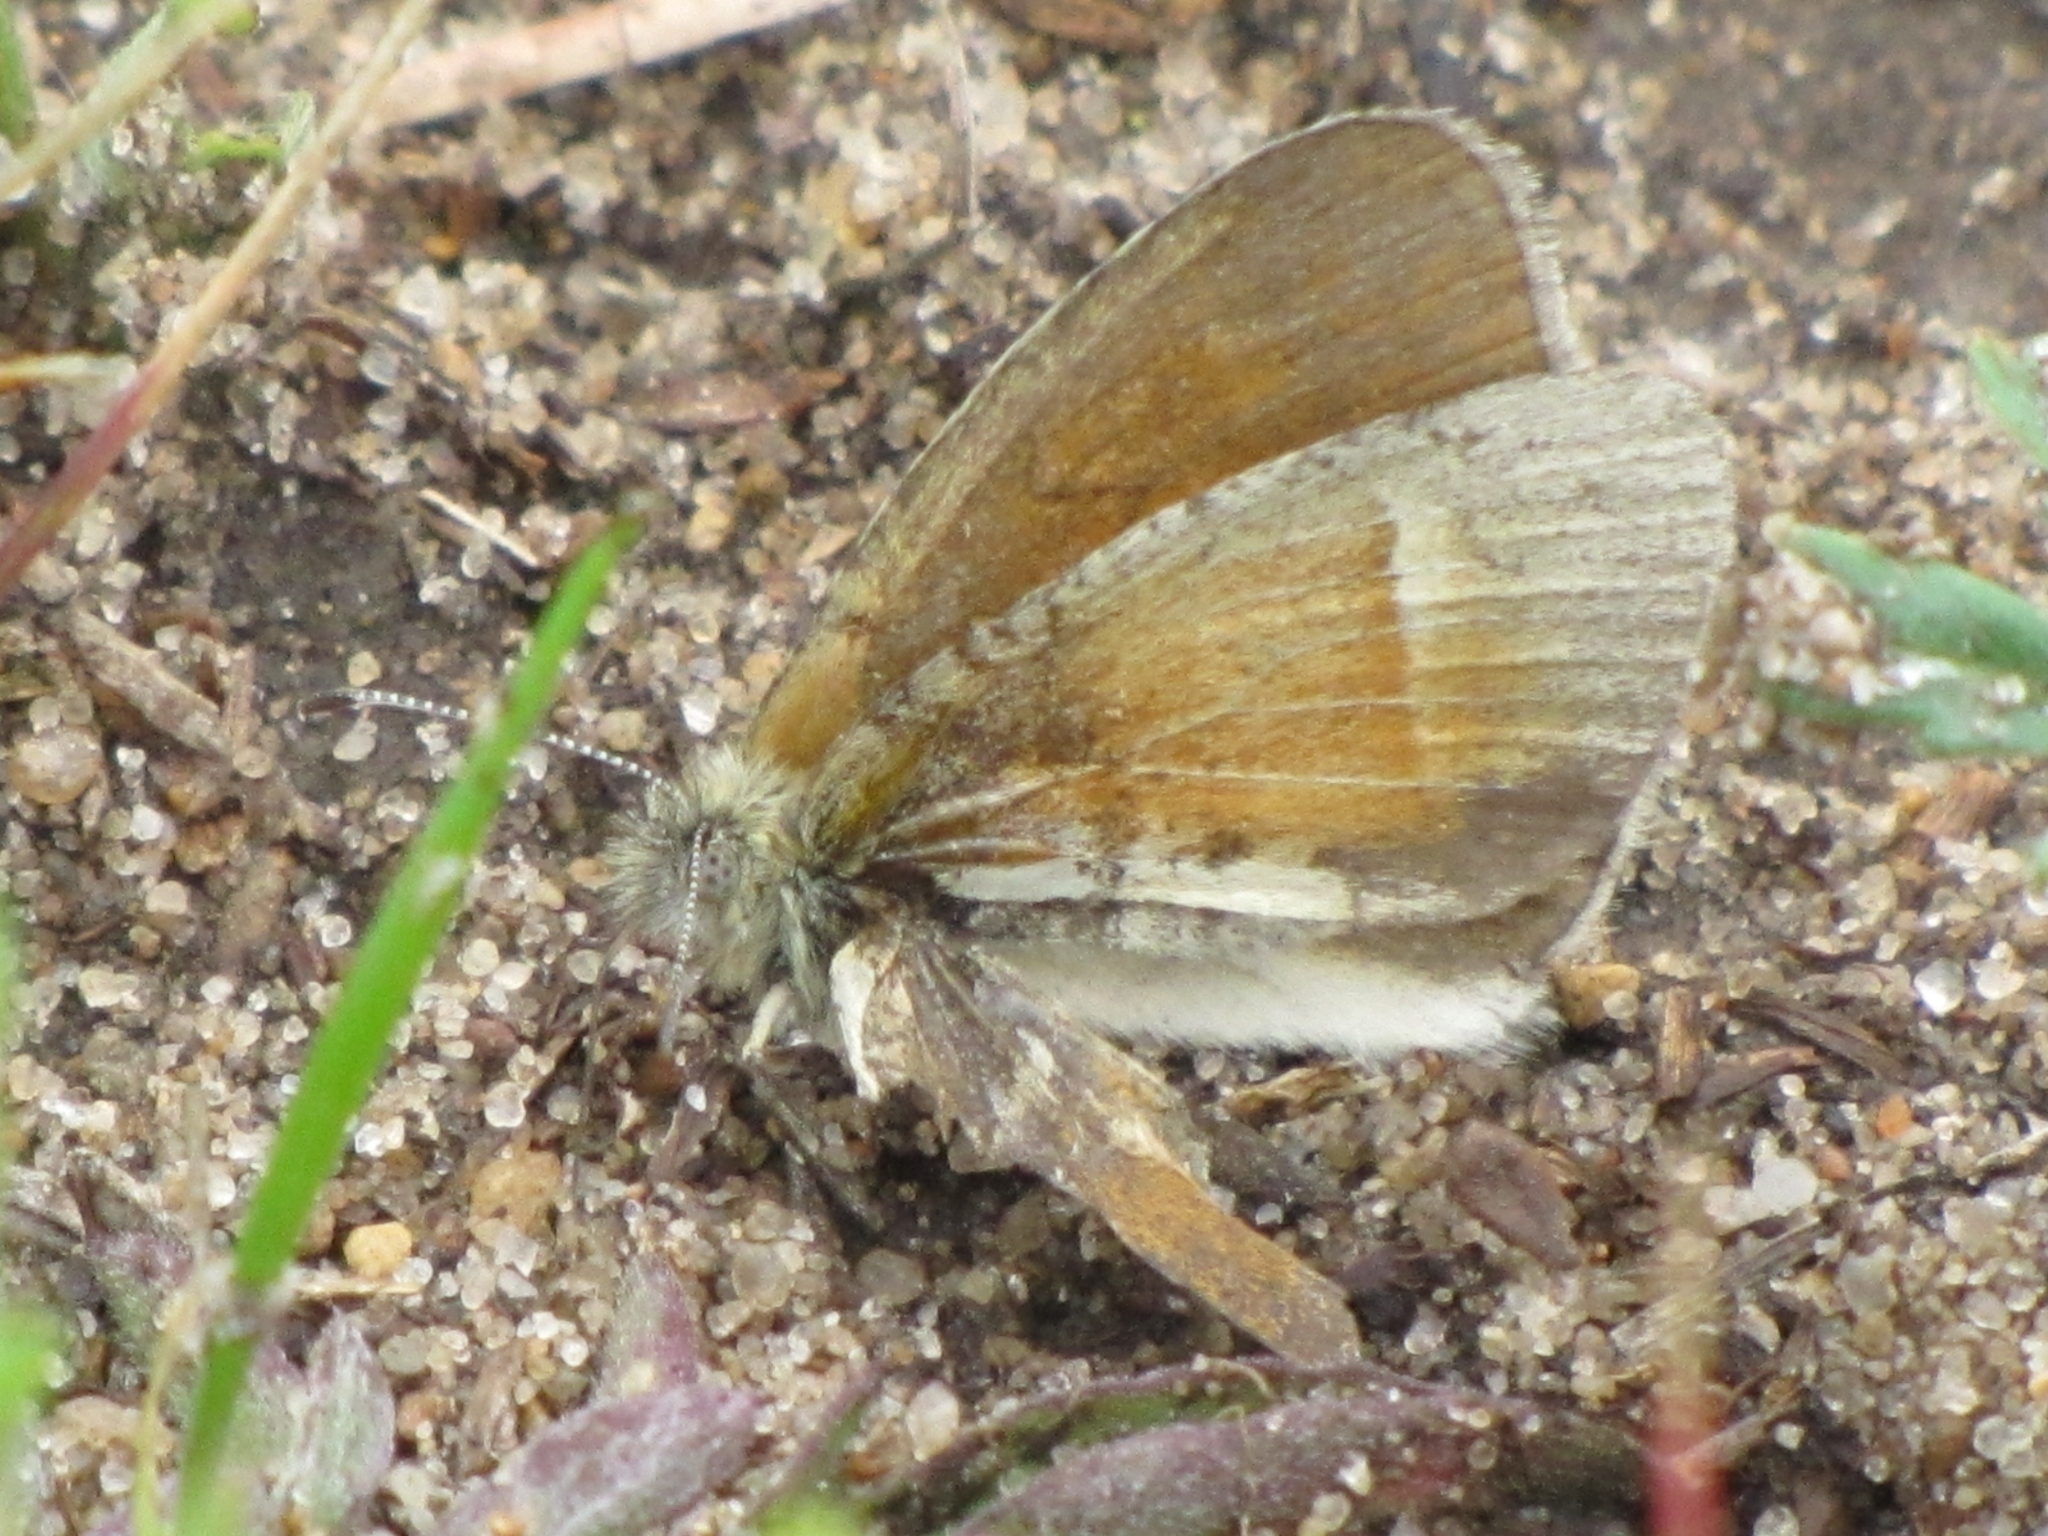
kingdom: Animalia
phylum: Arthropoda
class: Insecta
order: Lepidoptera
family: Nymphalidae
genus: Coenonympha
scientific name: Coenonympha california
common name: Common ringlet
